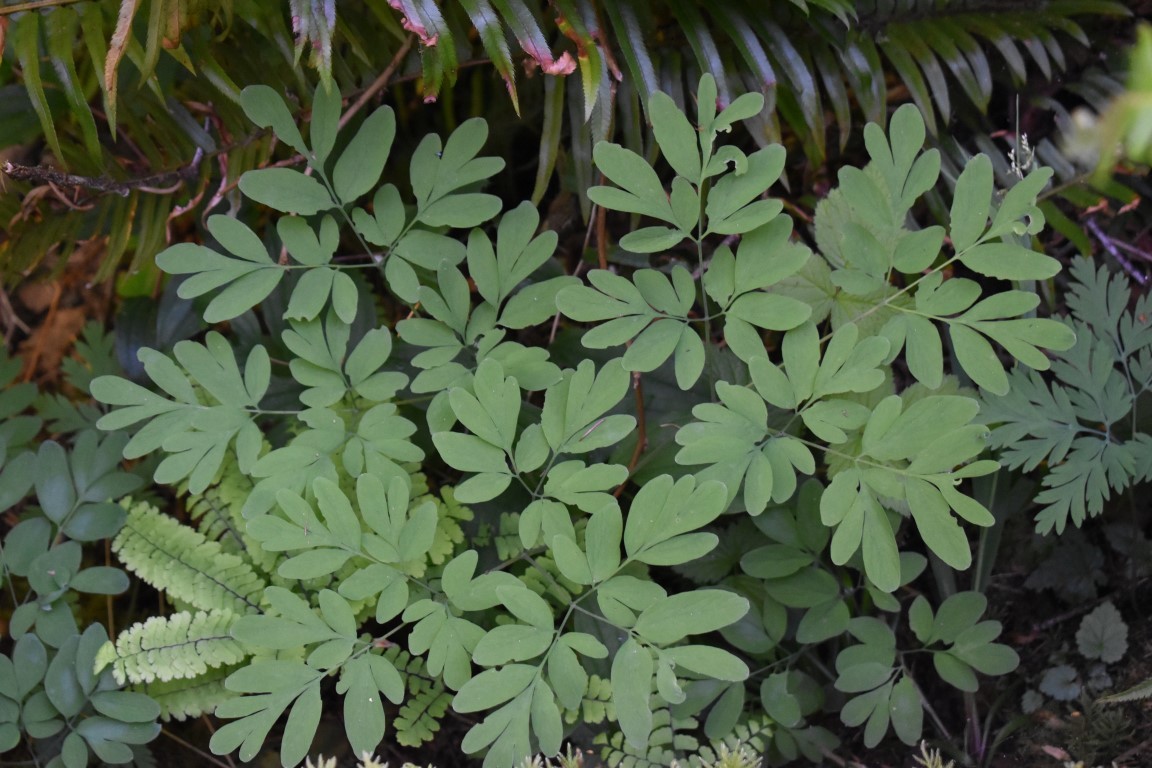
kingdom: Plantae
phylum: Tracheophyta
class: Magnoliopsida
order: Ranunculales
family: Papaveraceae
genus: Corydalis
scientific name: Corydalis scouleri
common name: Scouler's corydalis
